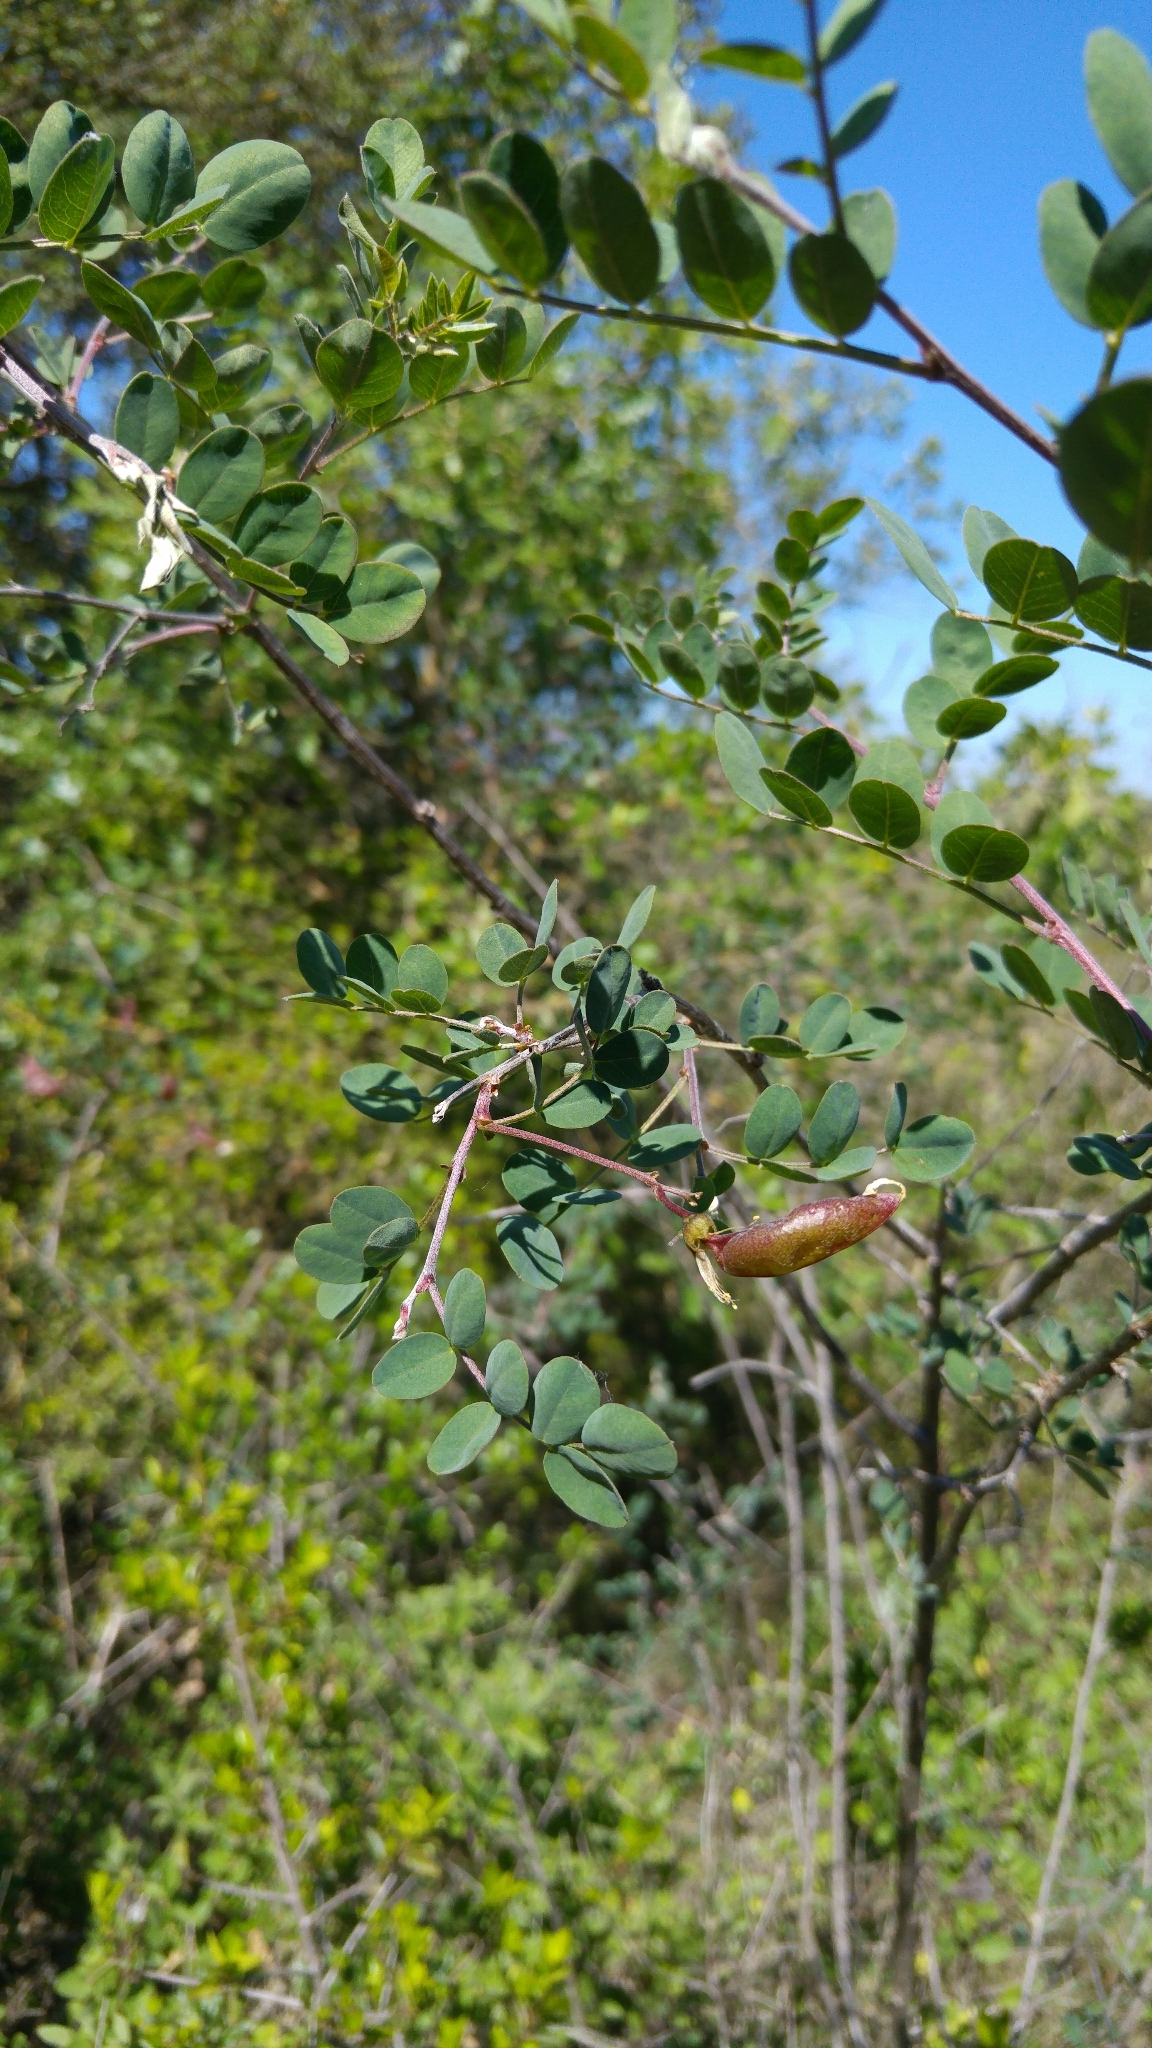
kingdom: Plantae
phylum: Tracheophyta
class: Magnoliopsida
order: Fabales
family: Fabaceae
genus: Colutea
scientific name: Colutea arborescens
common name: Bladder-senna
